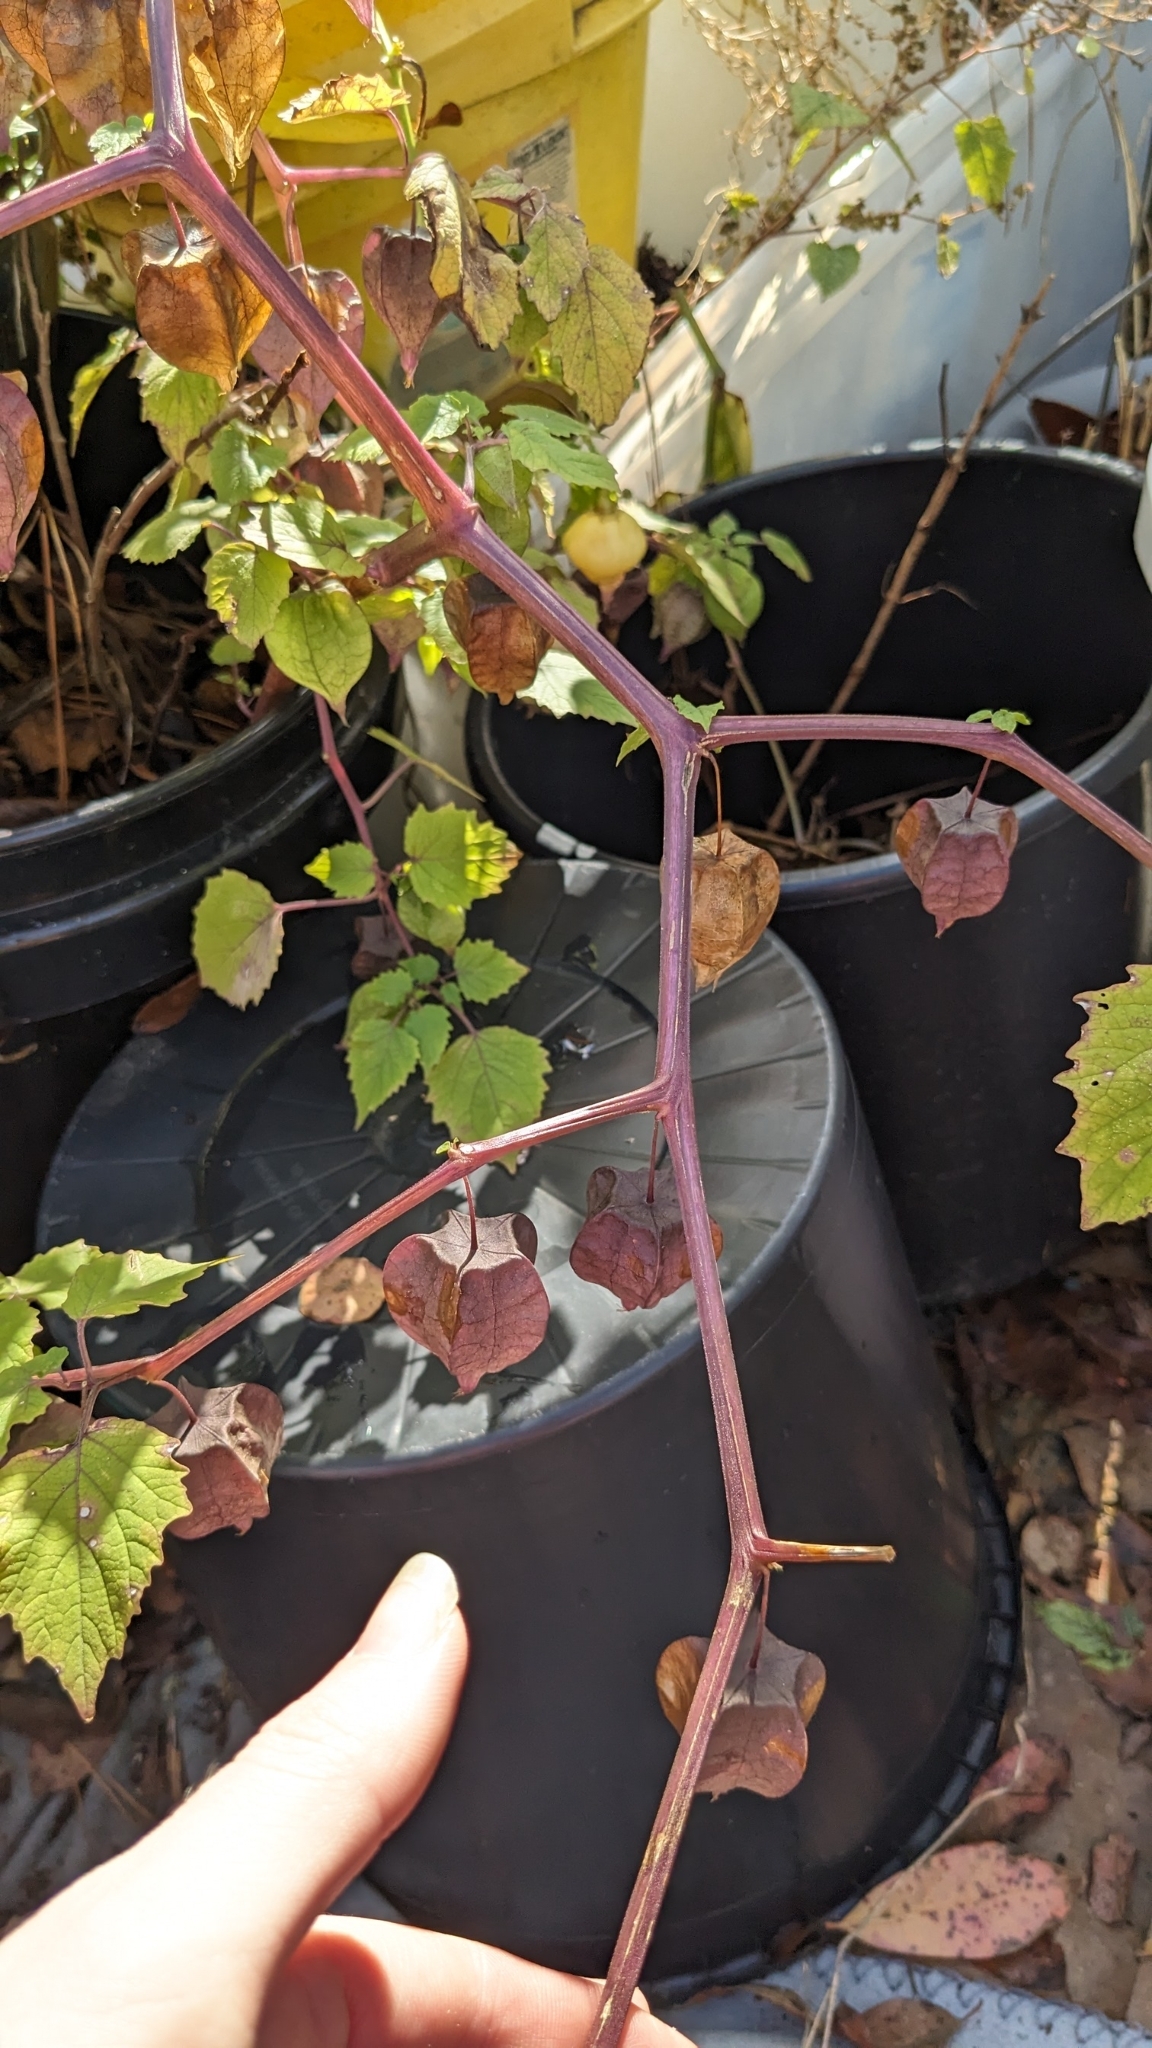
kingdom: Plantae
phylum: Tracheophyta
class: Magnoliopsida
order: Solanales
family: Solanaceae
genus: Physalis
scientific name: Physalis cordata
